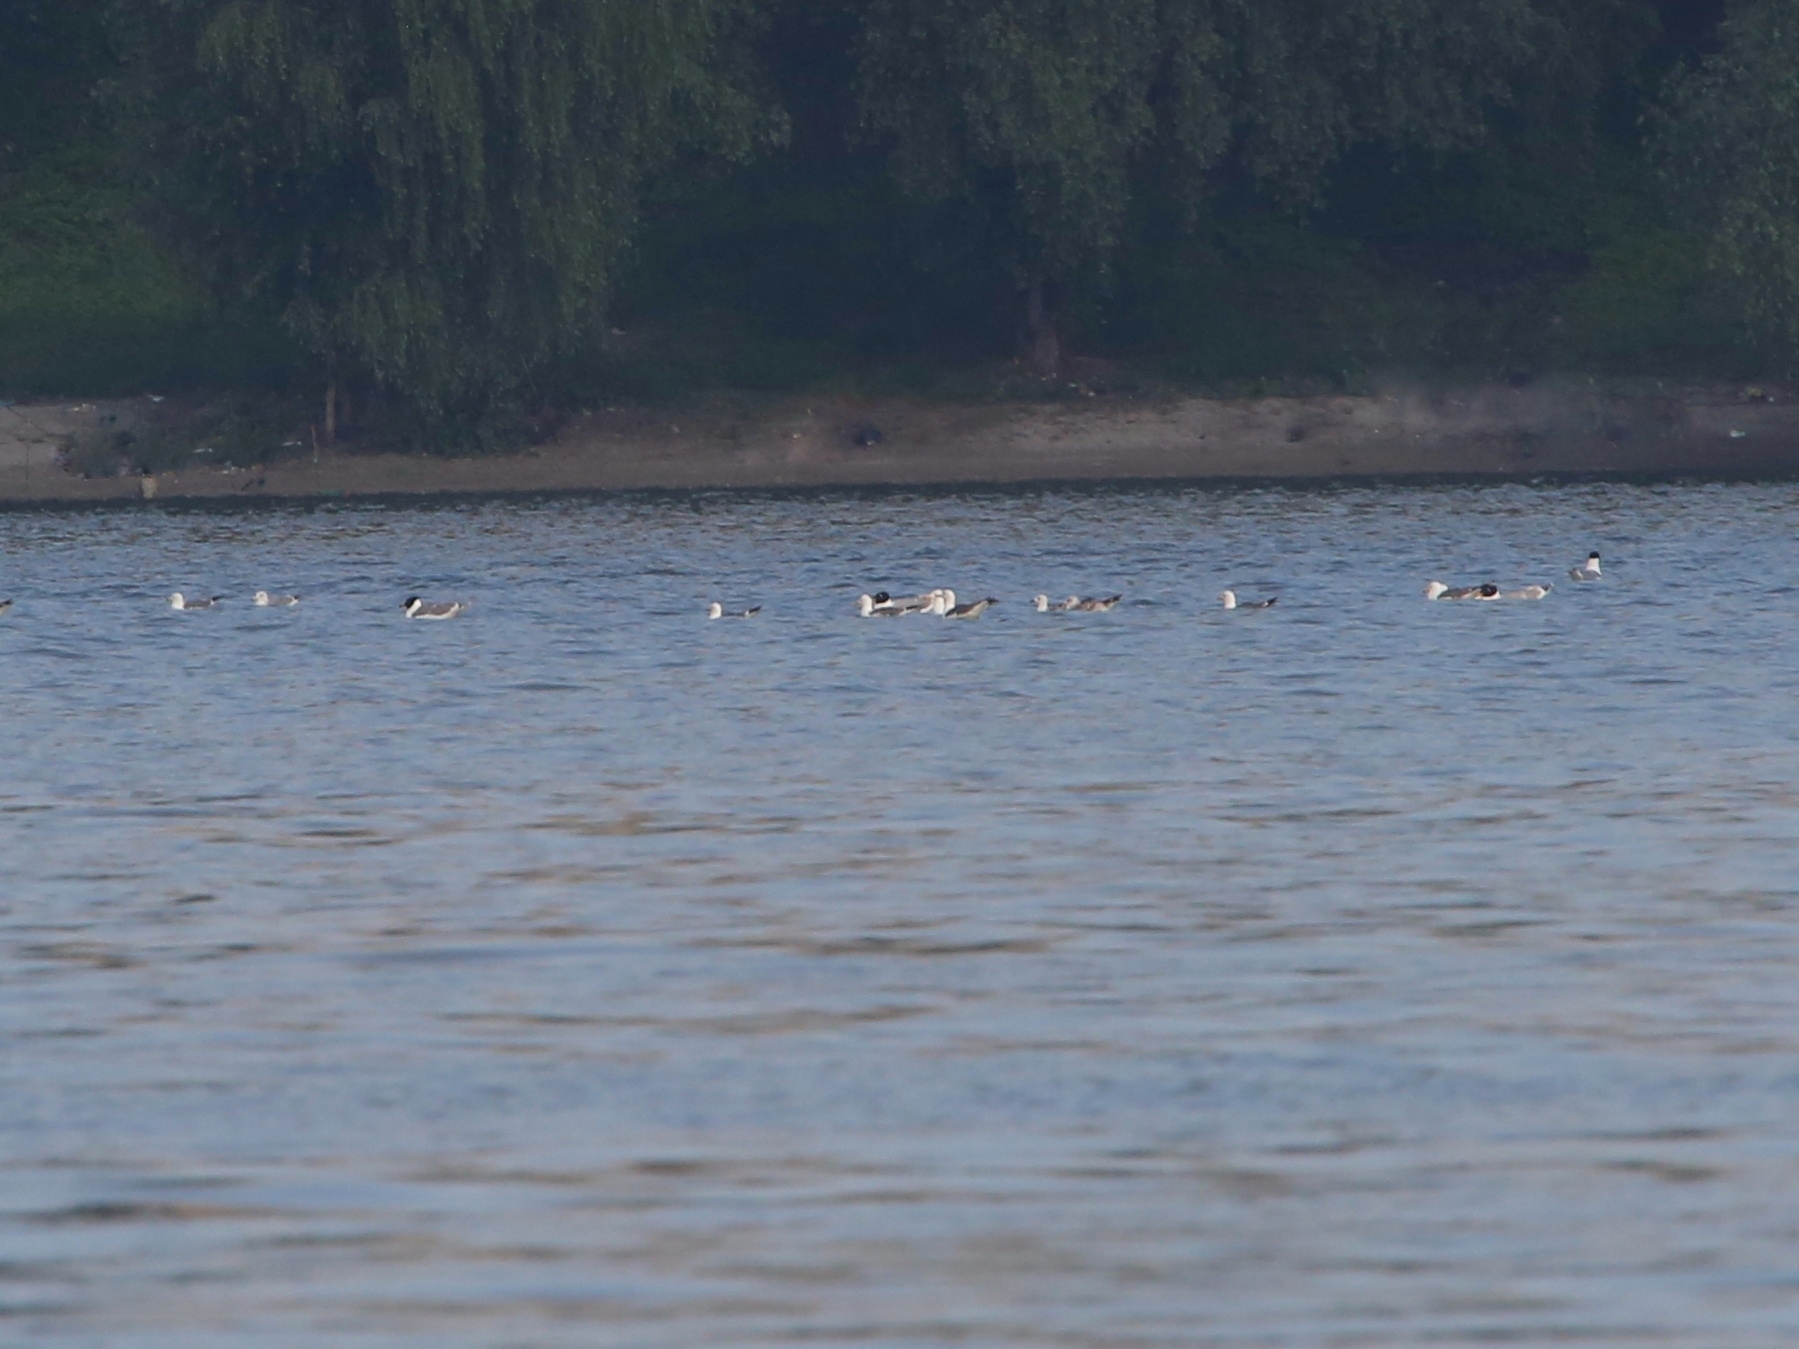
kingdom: Animalia
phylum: Chordata
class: Aves
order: Charadriiformes
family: Laridae
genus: Ichthyaetus
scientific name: Ichthyaetus ichthyaetus
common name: Pallas's gull
